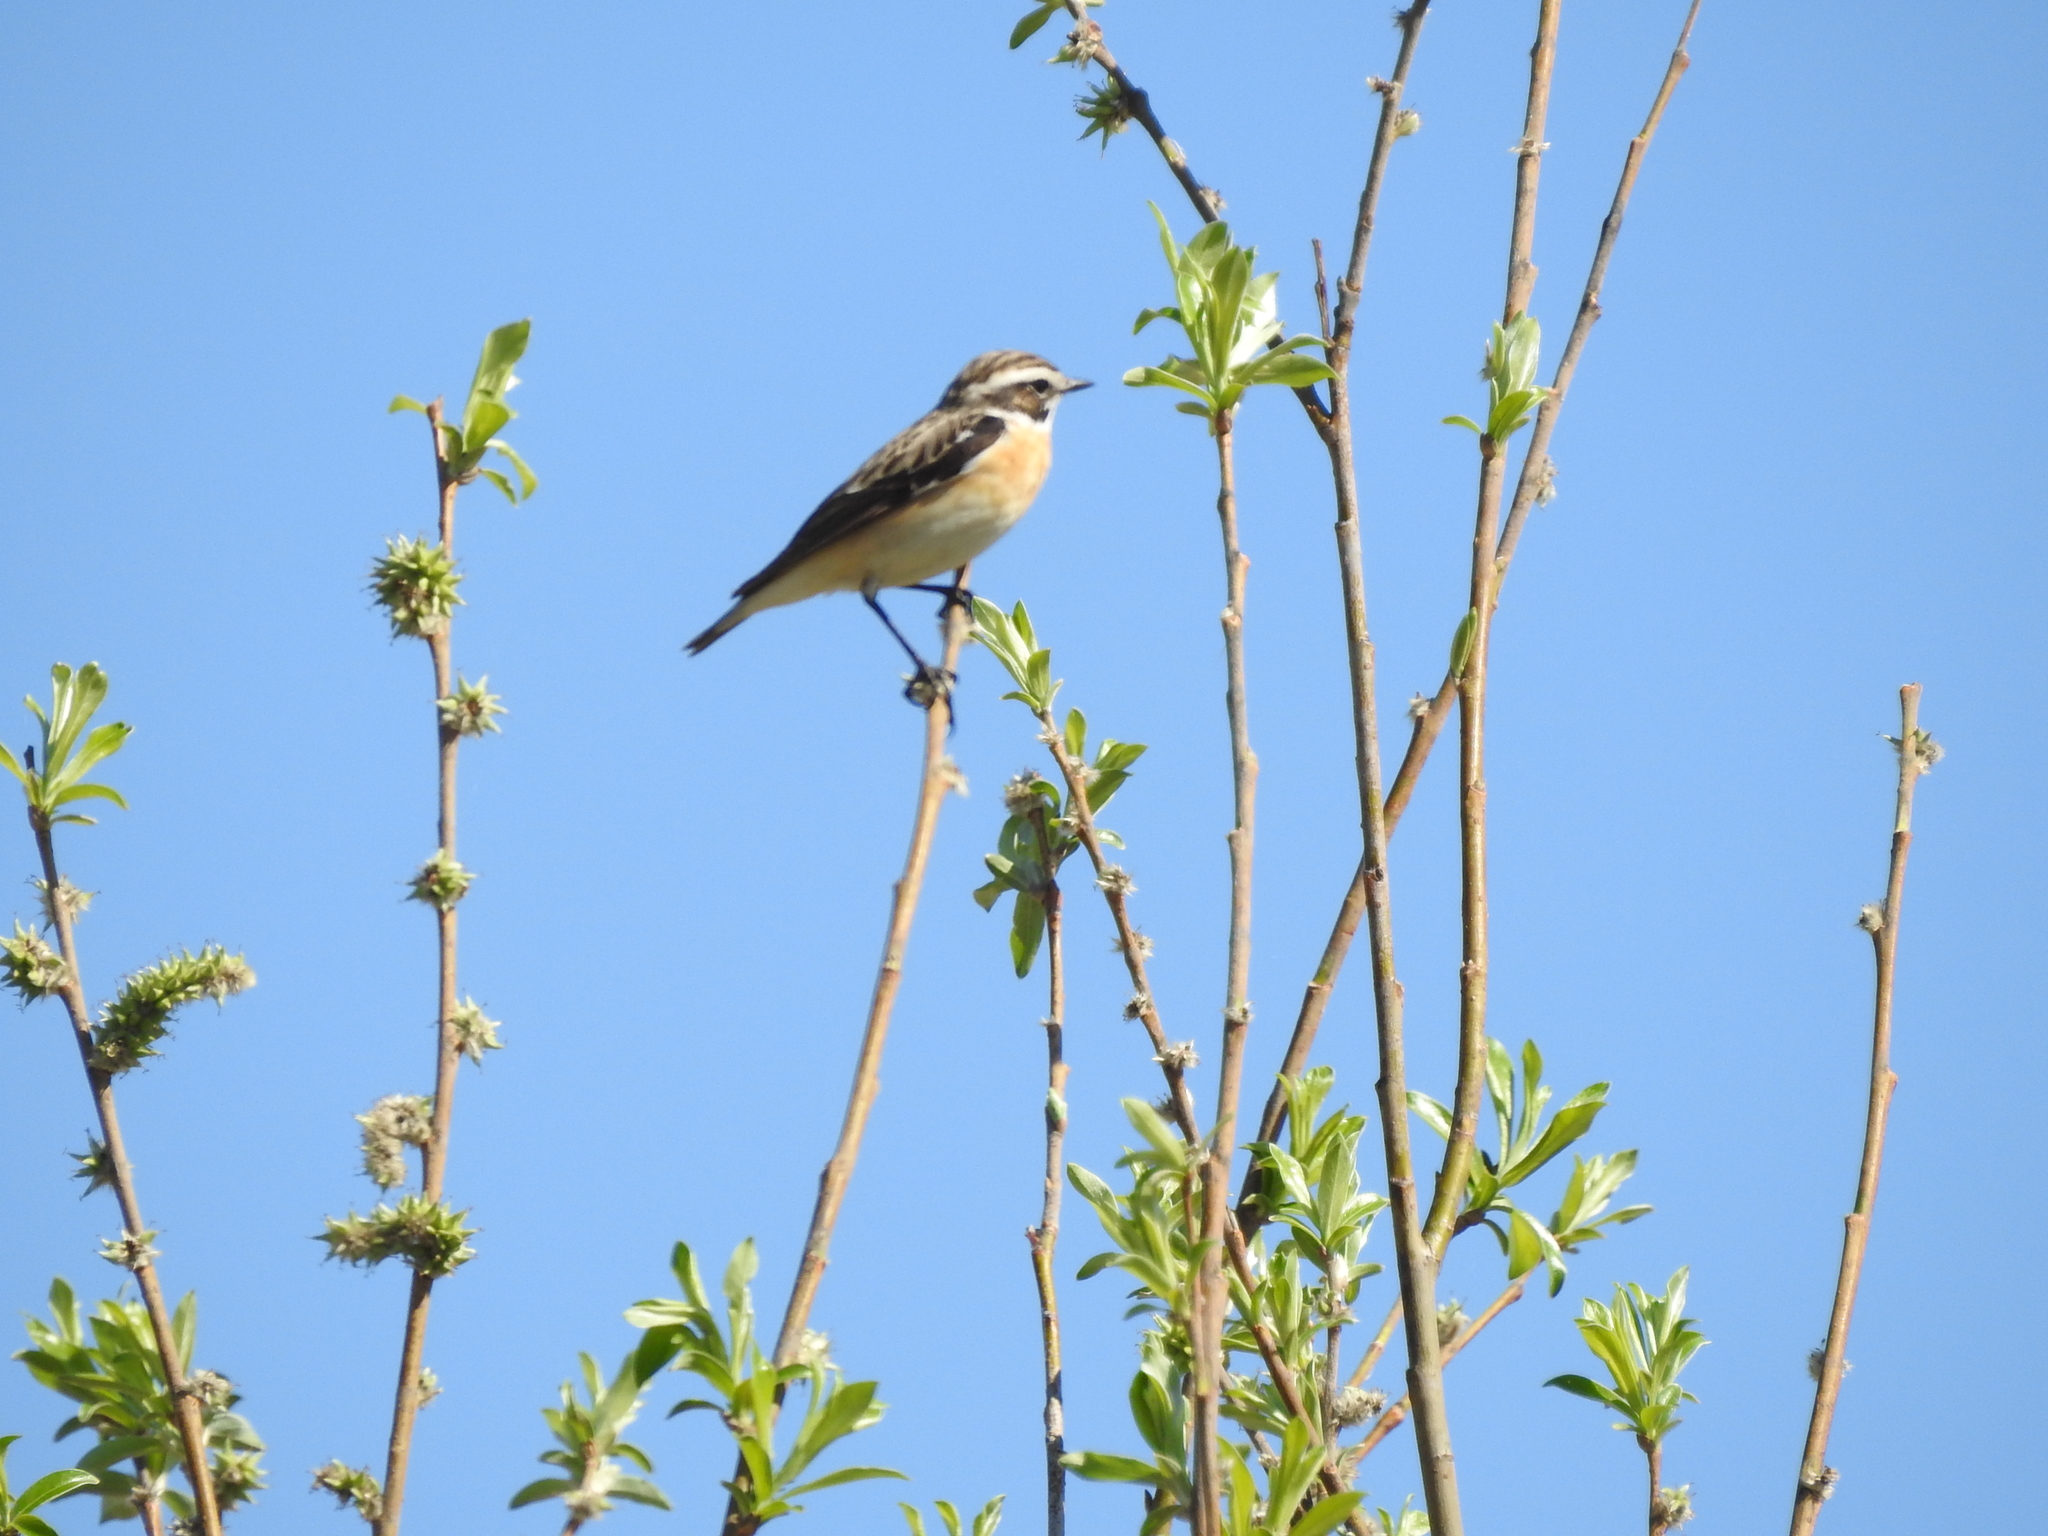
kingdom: Animalia
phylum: Chordata
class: Aves
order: Passeriformes
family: Muscicapidae
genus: Saxicola
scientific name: Saxicola rubetra
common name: Whinchat
